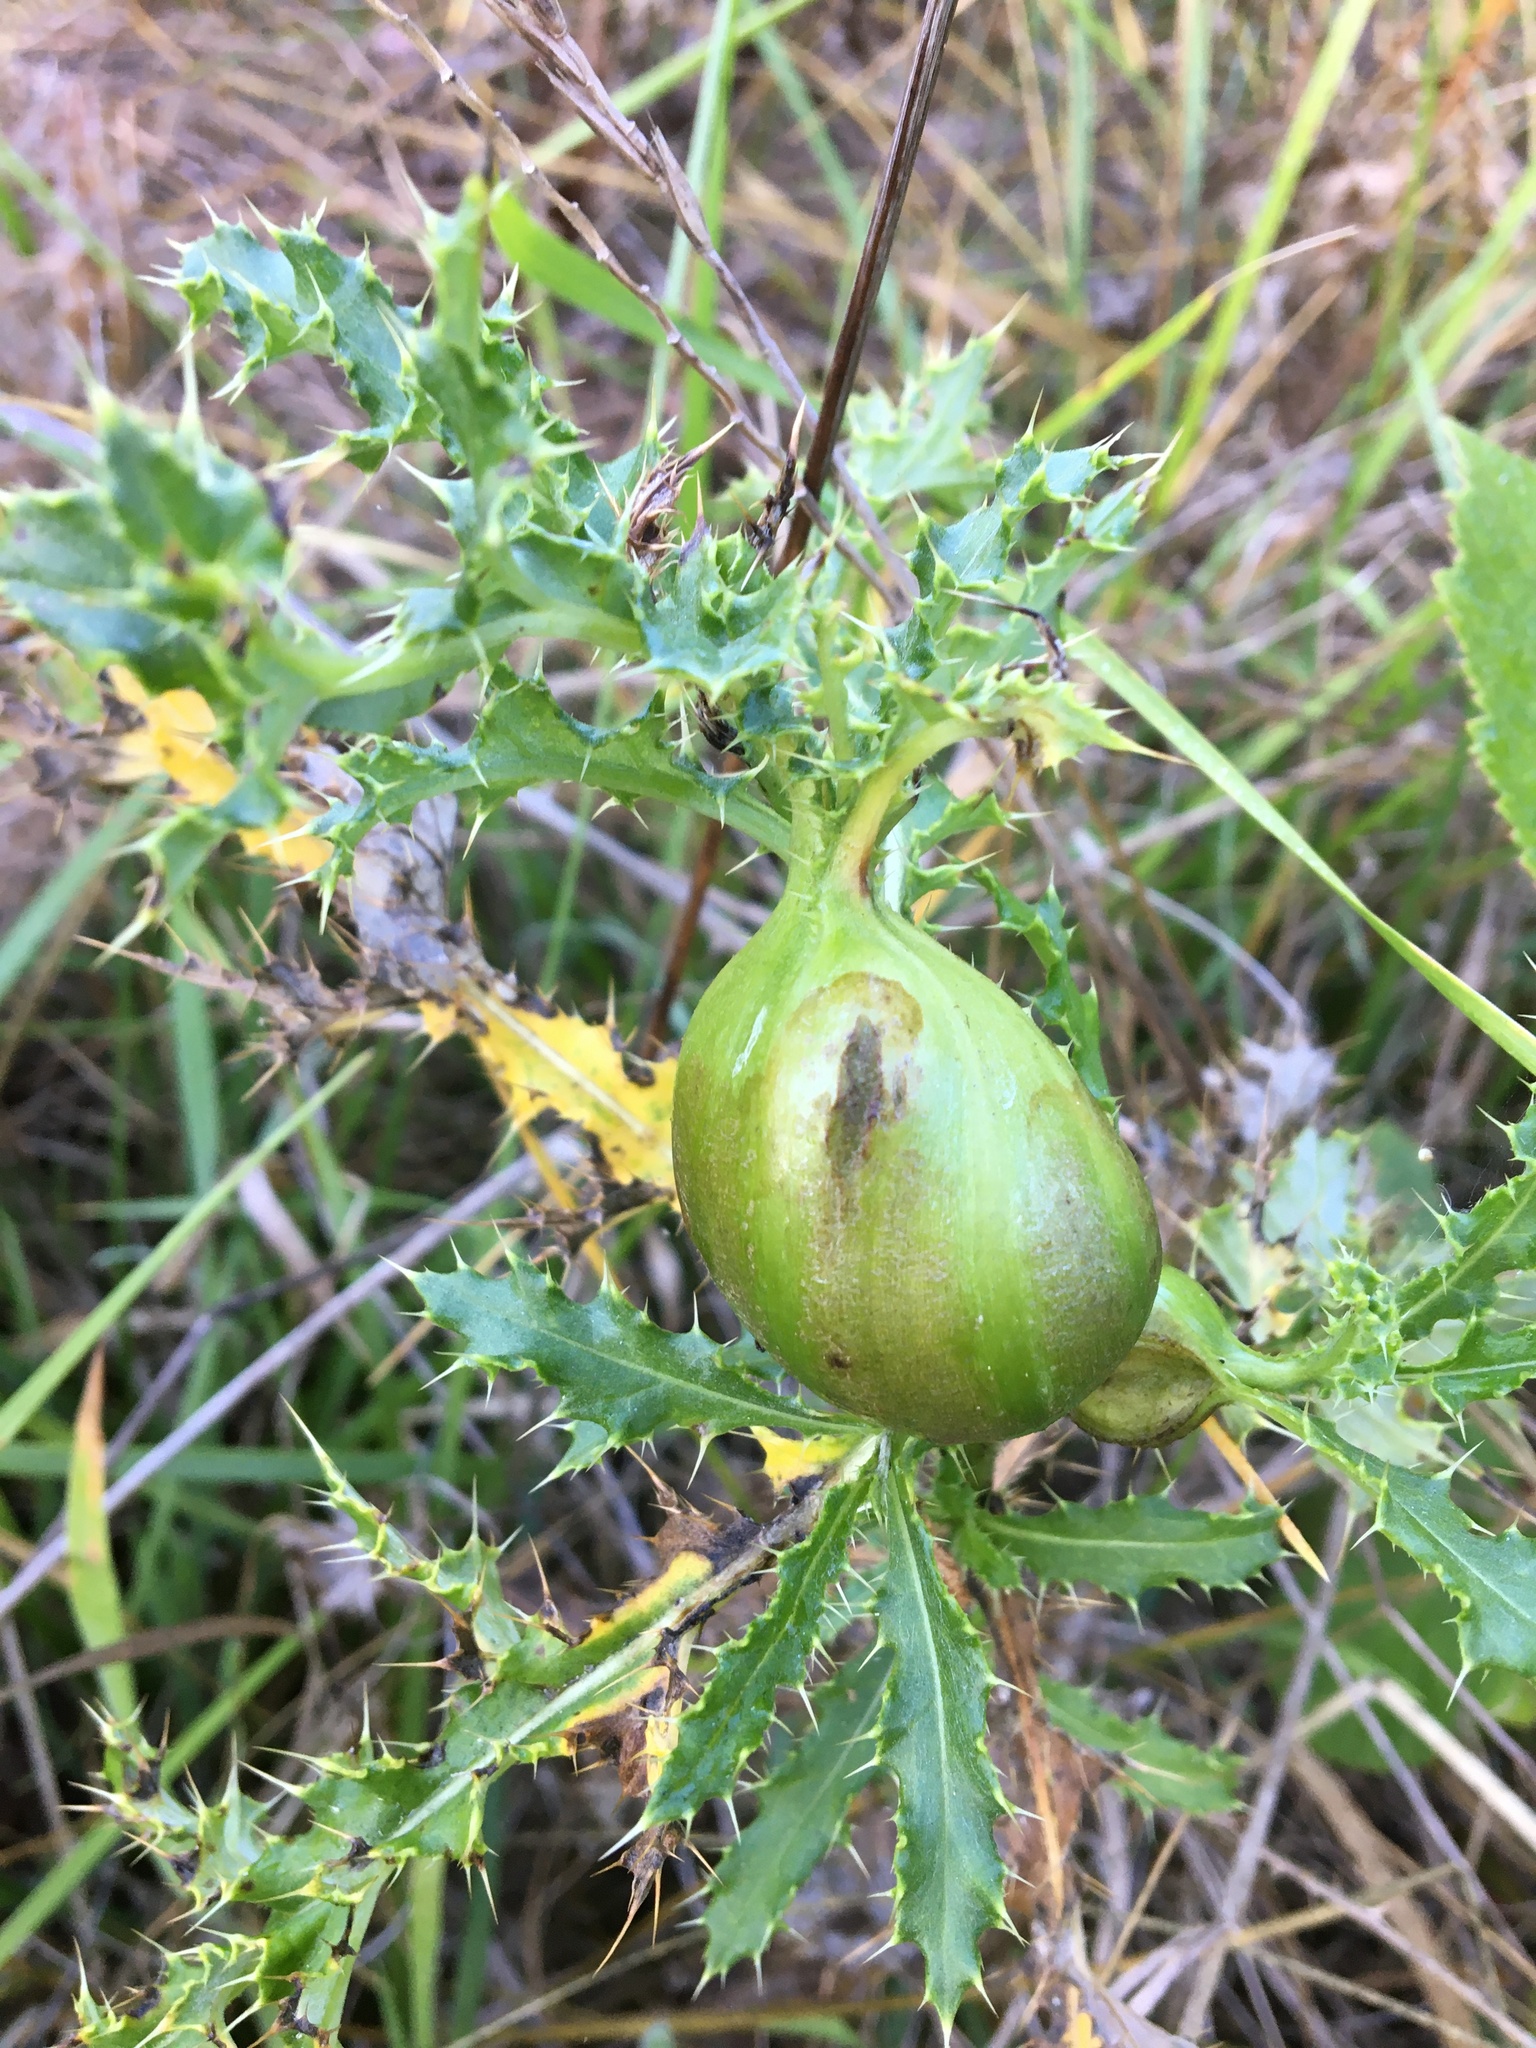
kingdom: Animalia
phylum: Arthropoda
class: Insecta
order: Diptera
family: Tephritidae
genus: Urophora
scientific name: Urophora cardui
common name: Fruit fly
